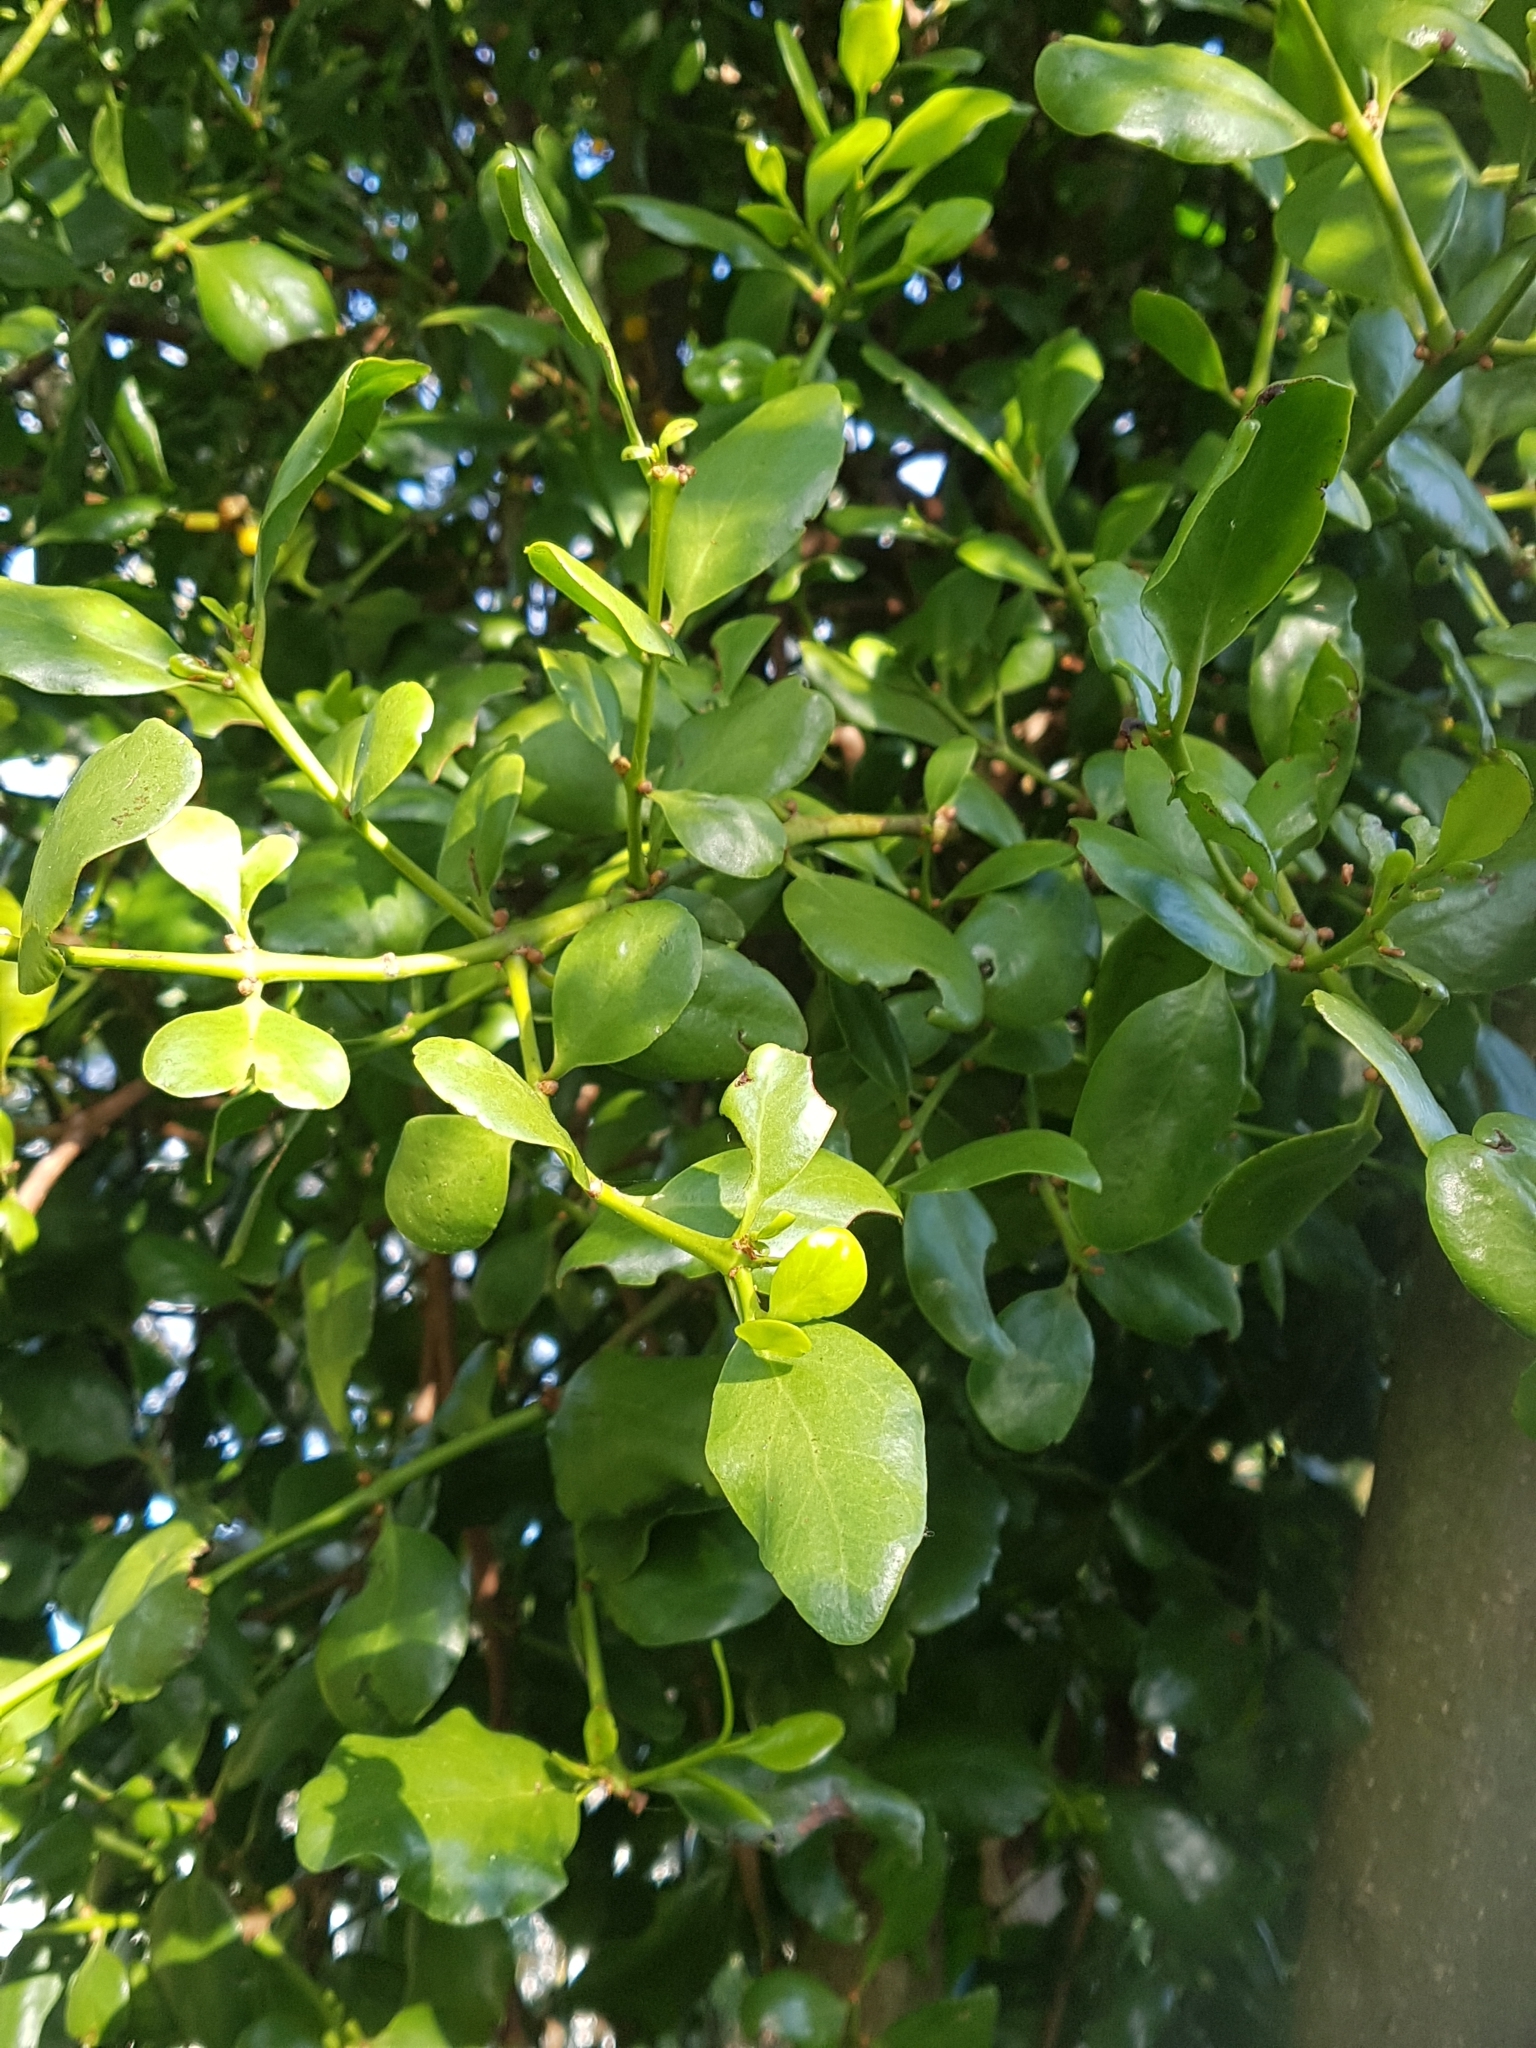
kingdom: Plantae
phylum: Tracheophyta
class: Magnoliopsida
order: Santalales
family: Loranthaceae
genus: Ileostylus
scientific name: Ileostylus micranthus
